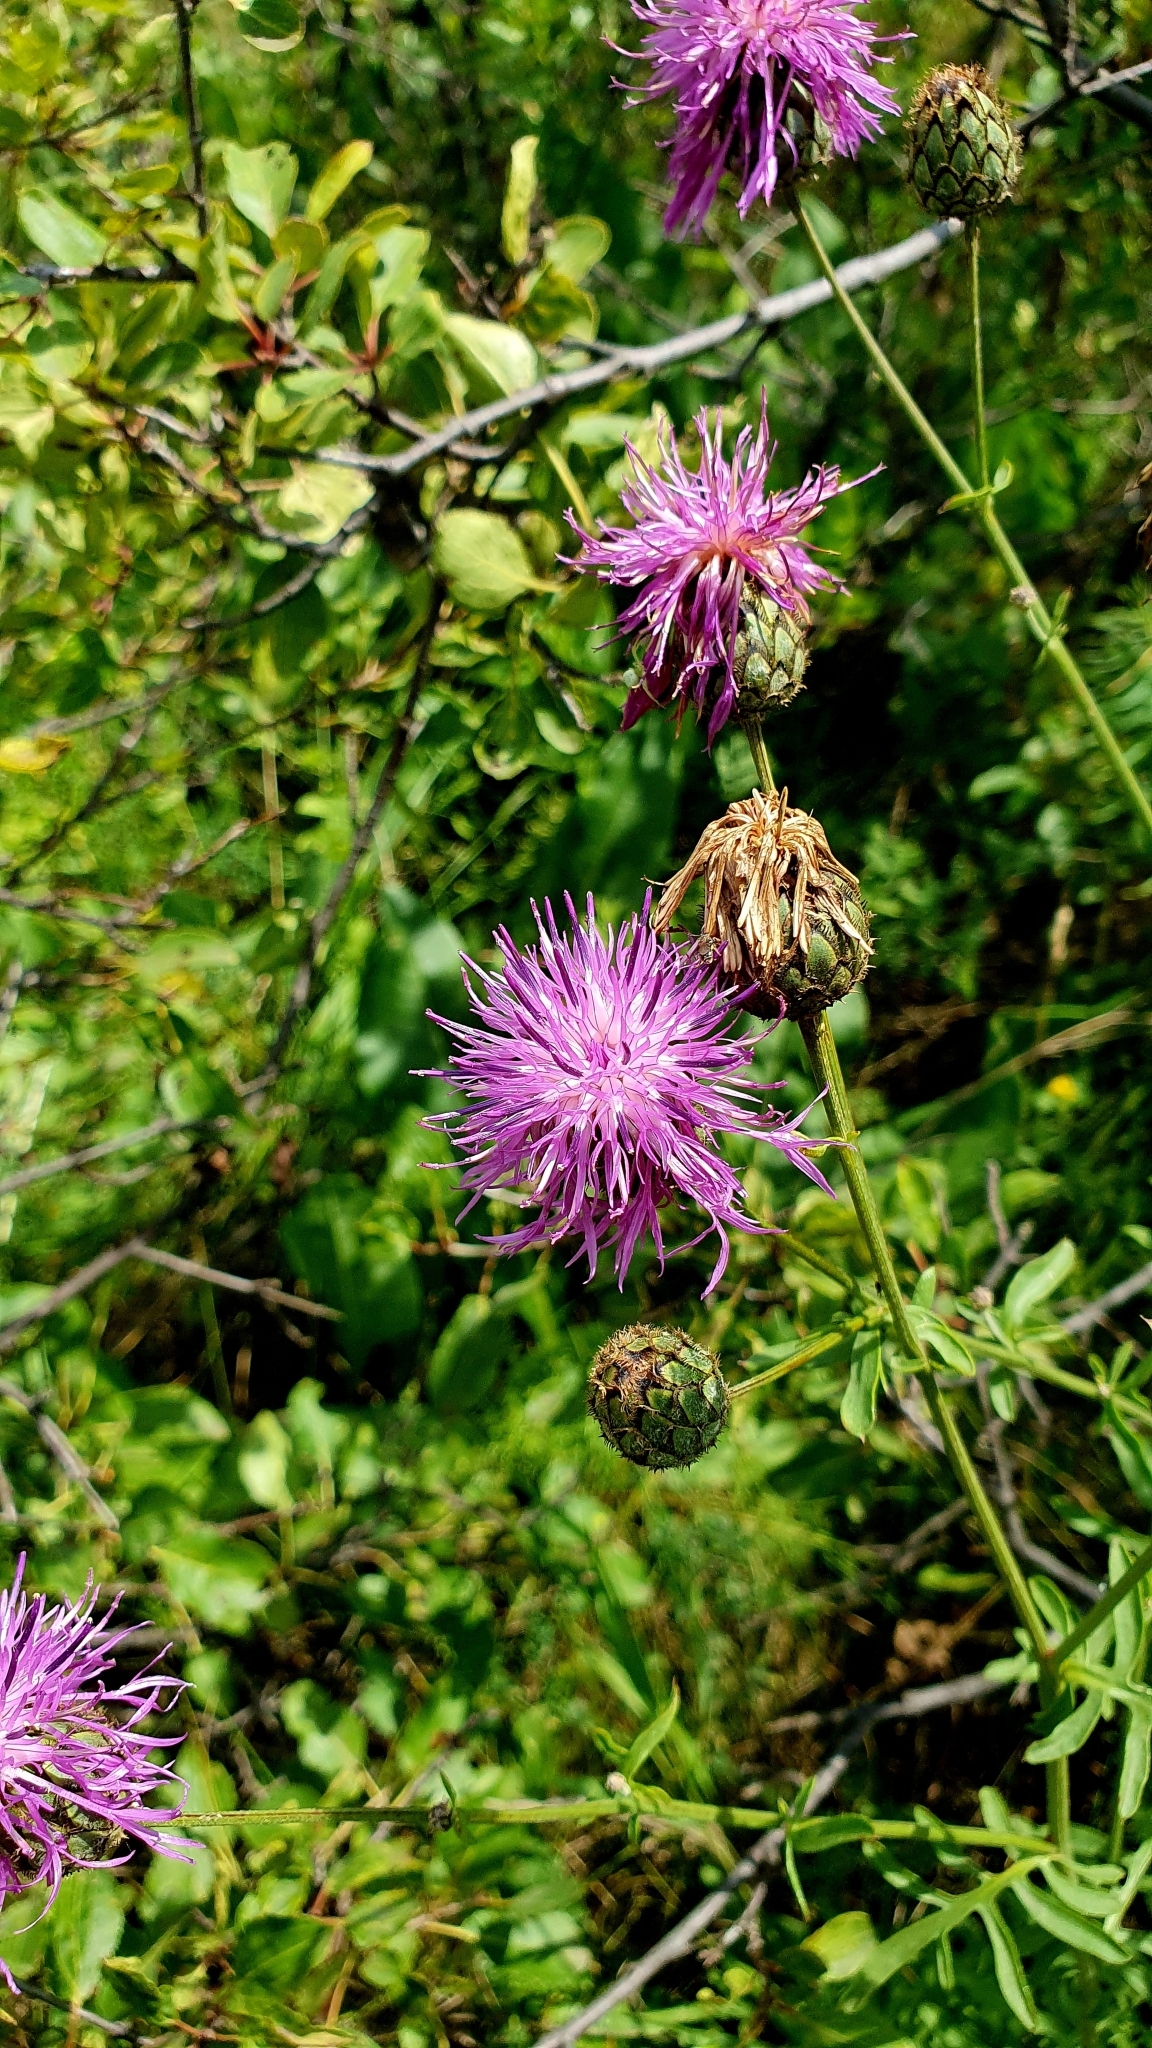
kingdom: Plantae
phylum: Tracheophyta
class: Magnoliopsida
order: Asterales
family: Asteraceae
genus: Centaurea
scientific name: Centaurea scabiosa
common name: Greater knapweed
